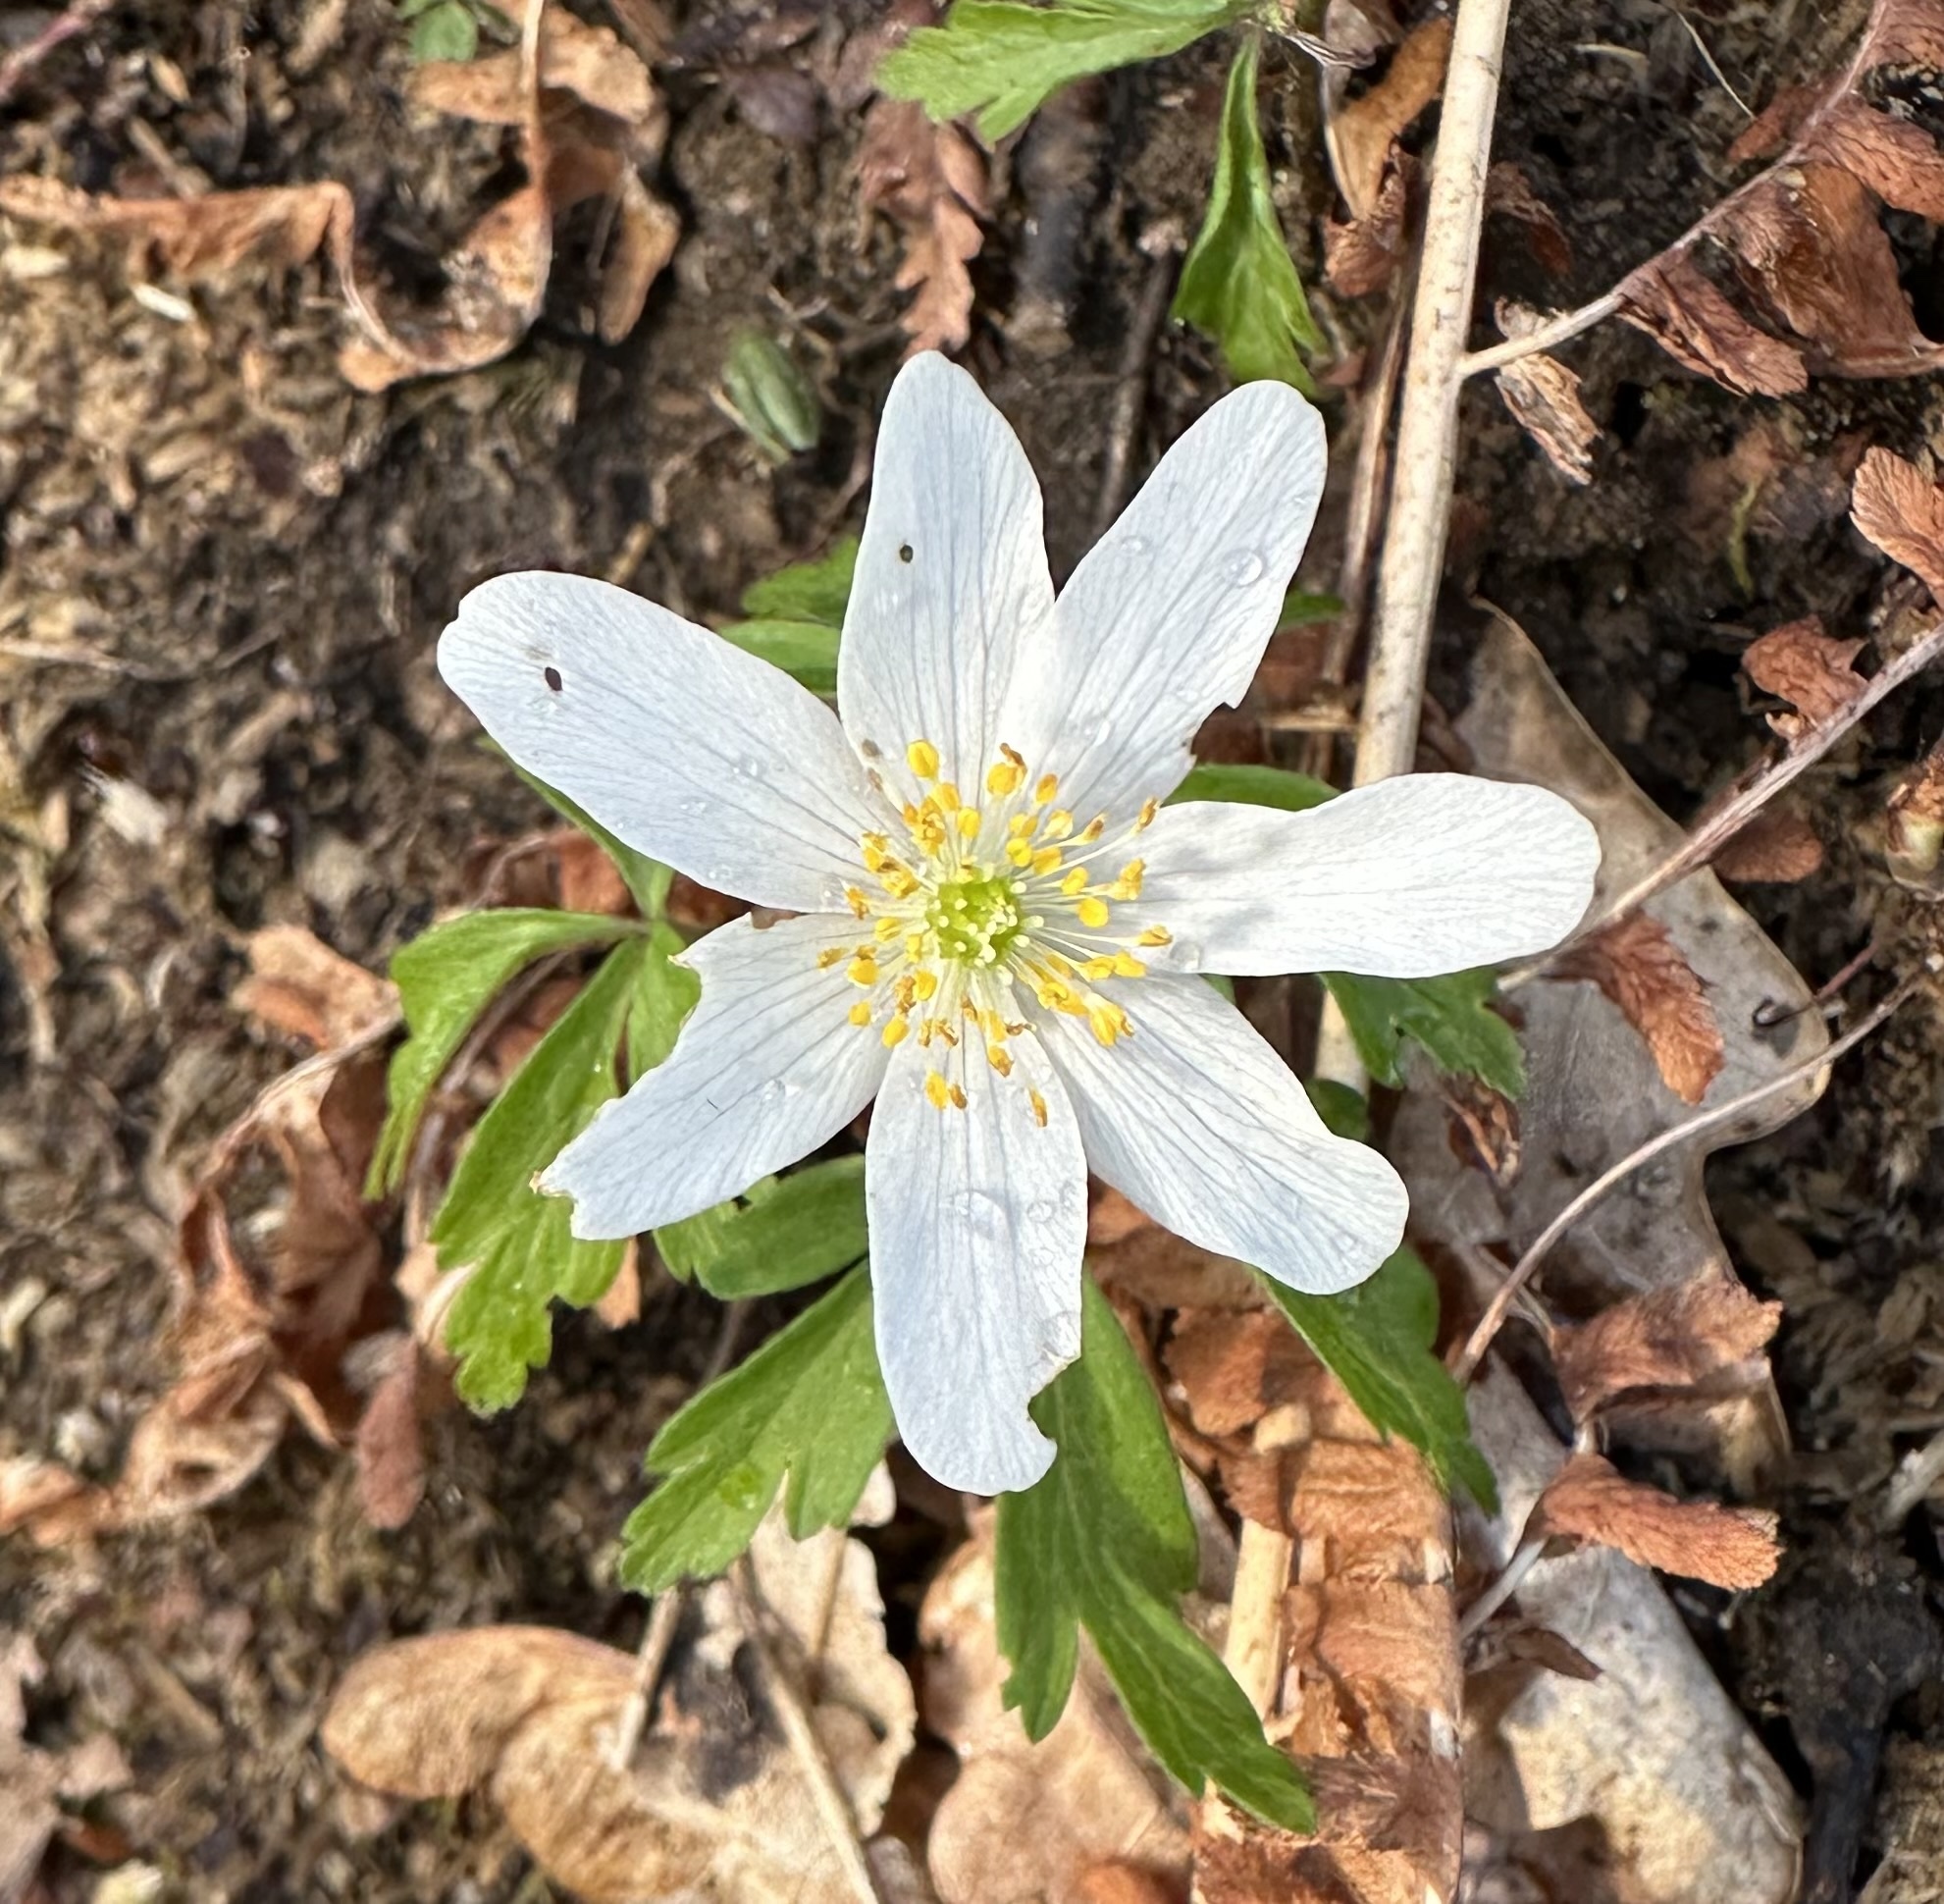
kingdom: Plantae
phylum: Tracheophyta
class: Magnoliopsida
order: Ranunculales
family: Ranunculaceae
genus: Anemone
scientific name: Anemone nemorosa
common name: Wood anemone
